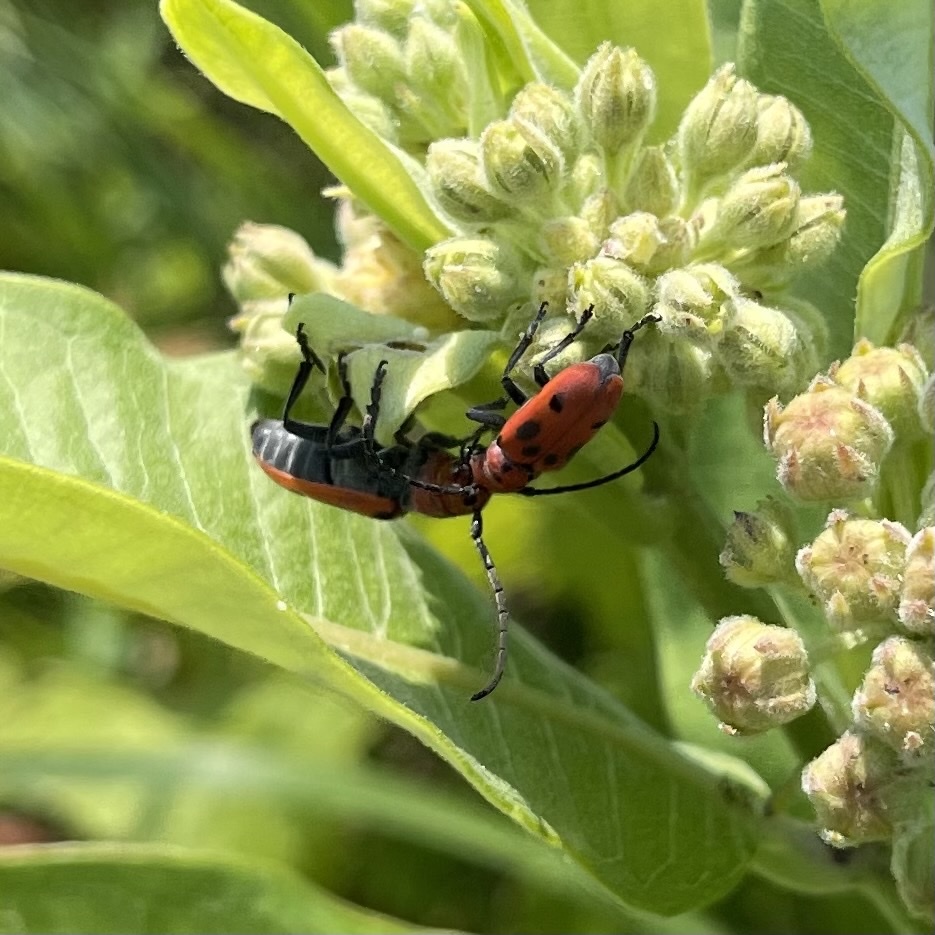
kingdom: Animalia
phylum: Arthropoda
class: Insecta
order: Coleoptera
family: Cerambycidae
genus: Tetraopes
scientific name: Tetraopes tetrophthalmus
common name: Red milkweed beetle
